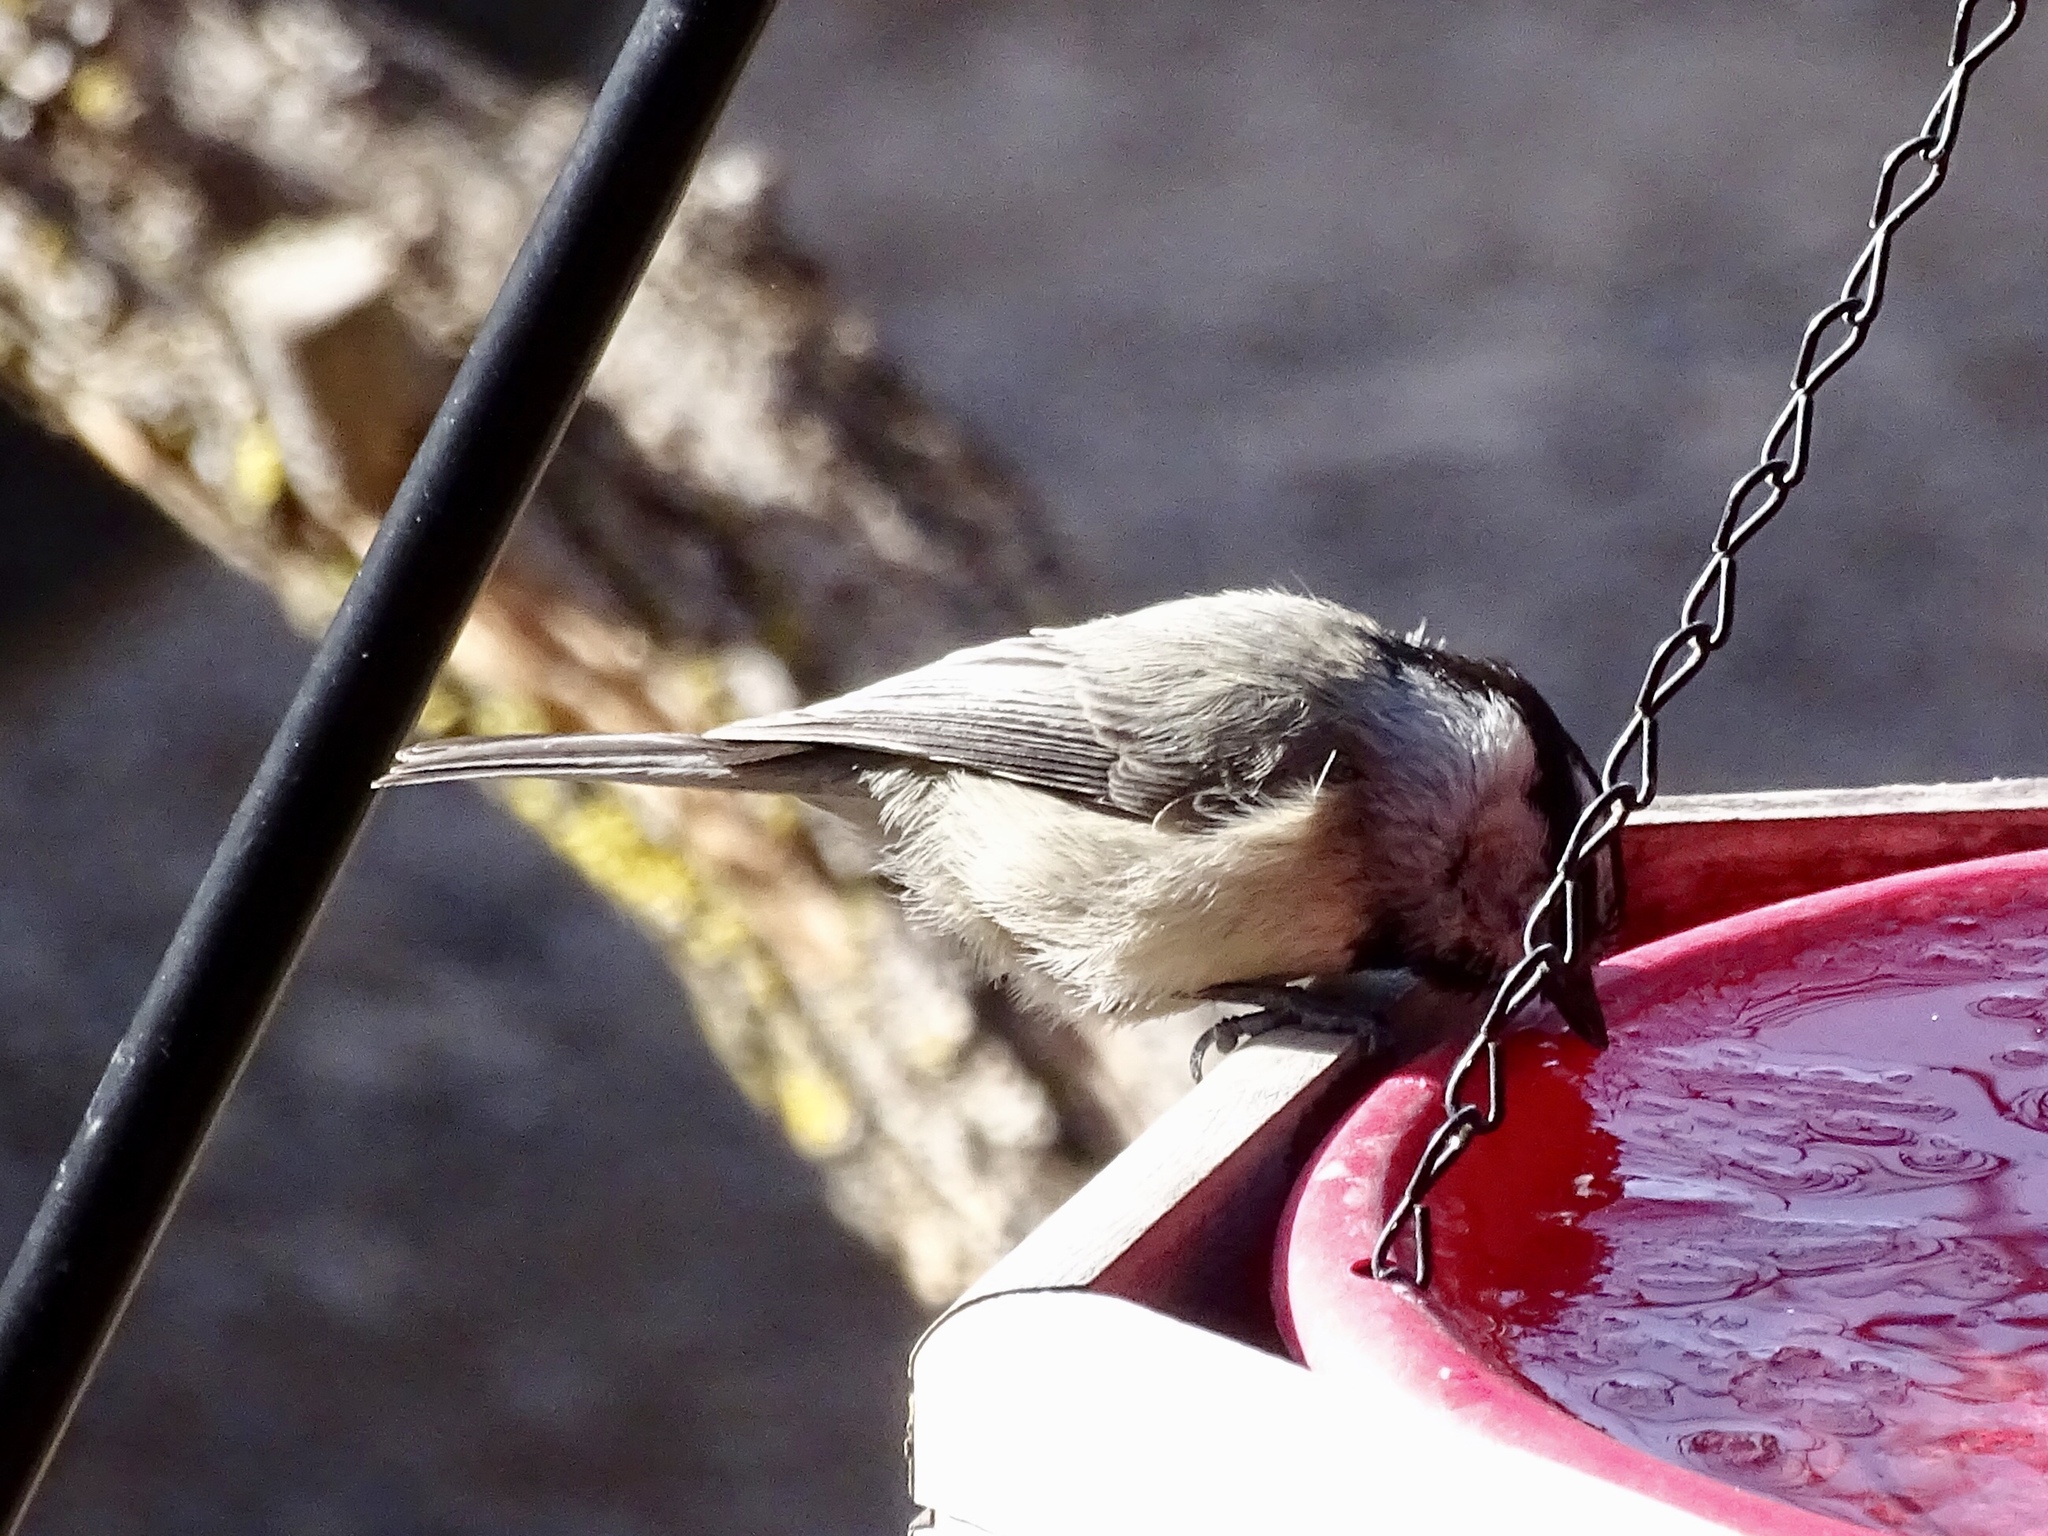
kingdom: Animalia
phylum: Chordata
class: Aves
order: Passeriformes
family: Paridae
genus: Poecile
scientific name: Poecile gambeli
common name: Mountain chickadee
